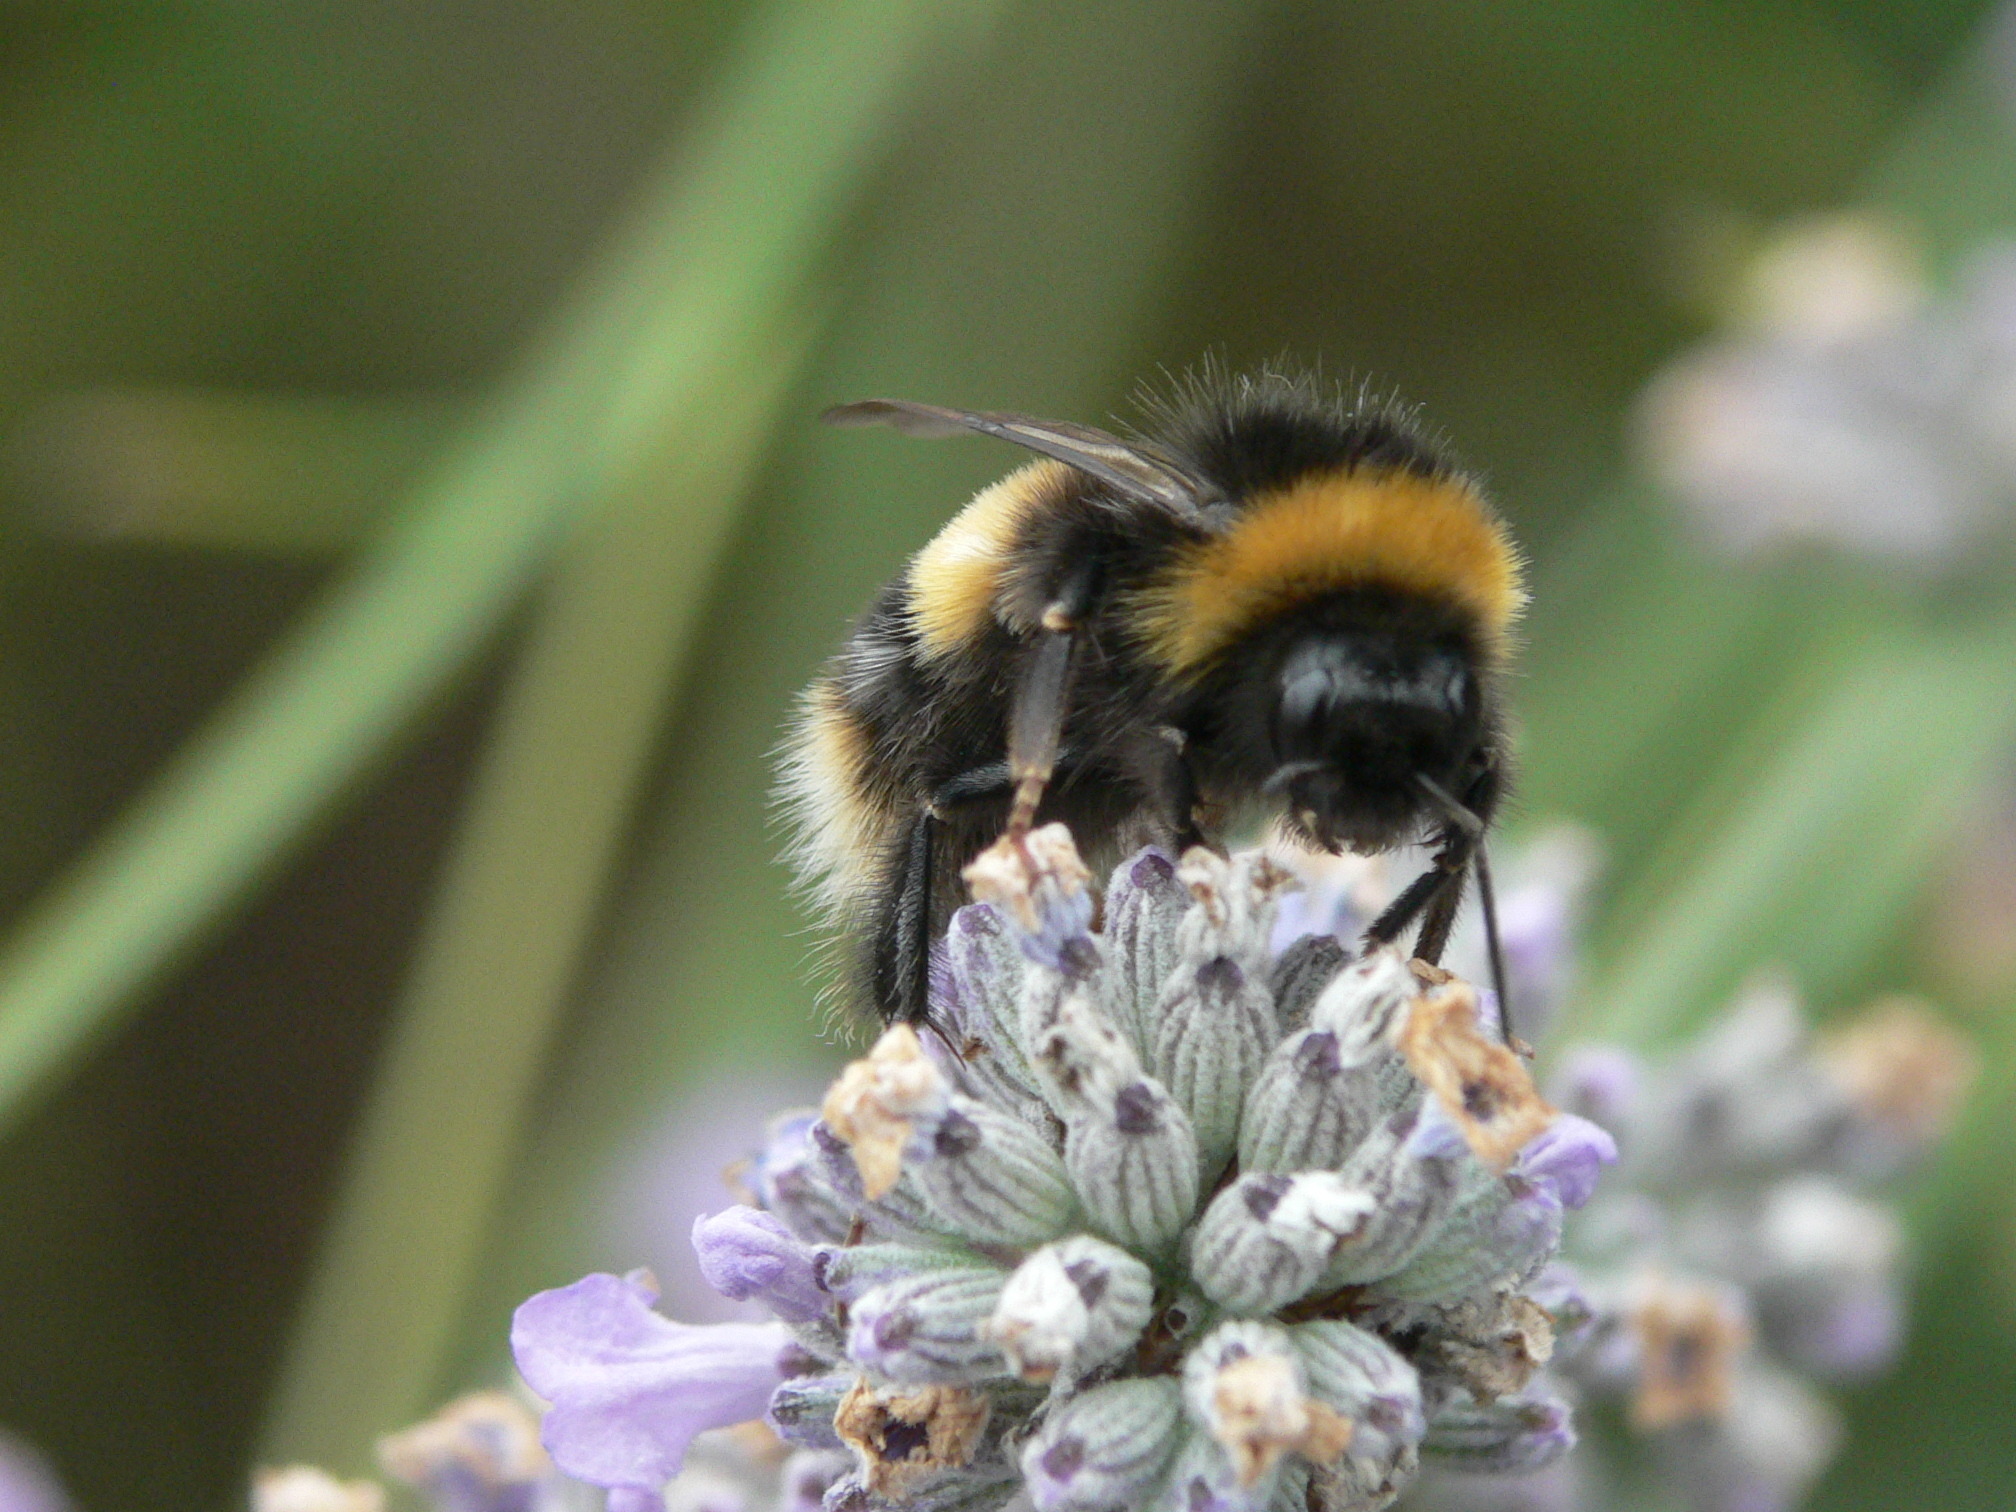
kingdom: Animalia
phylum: Arthropoda
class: Insecta
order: Hymenoptera
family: Apidae
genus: Bombus
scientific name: Bombus terrestris
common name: Buff-tailed bumblebee
